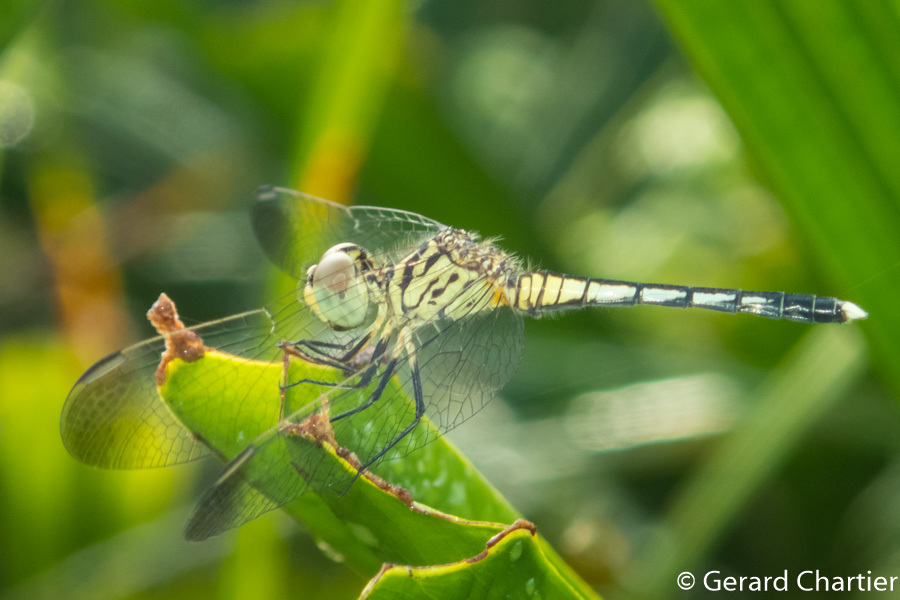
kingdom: Animalia
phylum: Arthropoda
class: Insecta
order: Odonata
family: Libellulidae
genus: Diplacodes
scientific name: Diplacodes nebulosa
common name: Black-tipped percher
